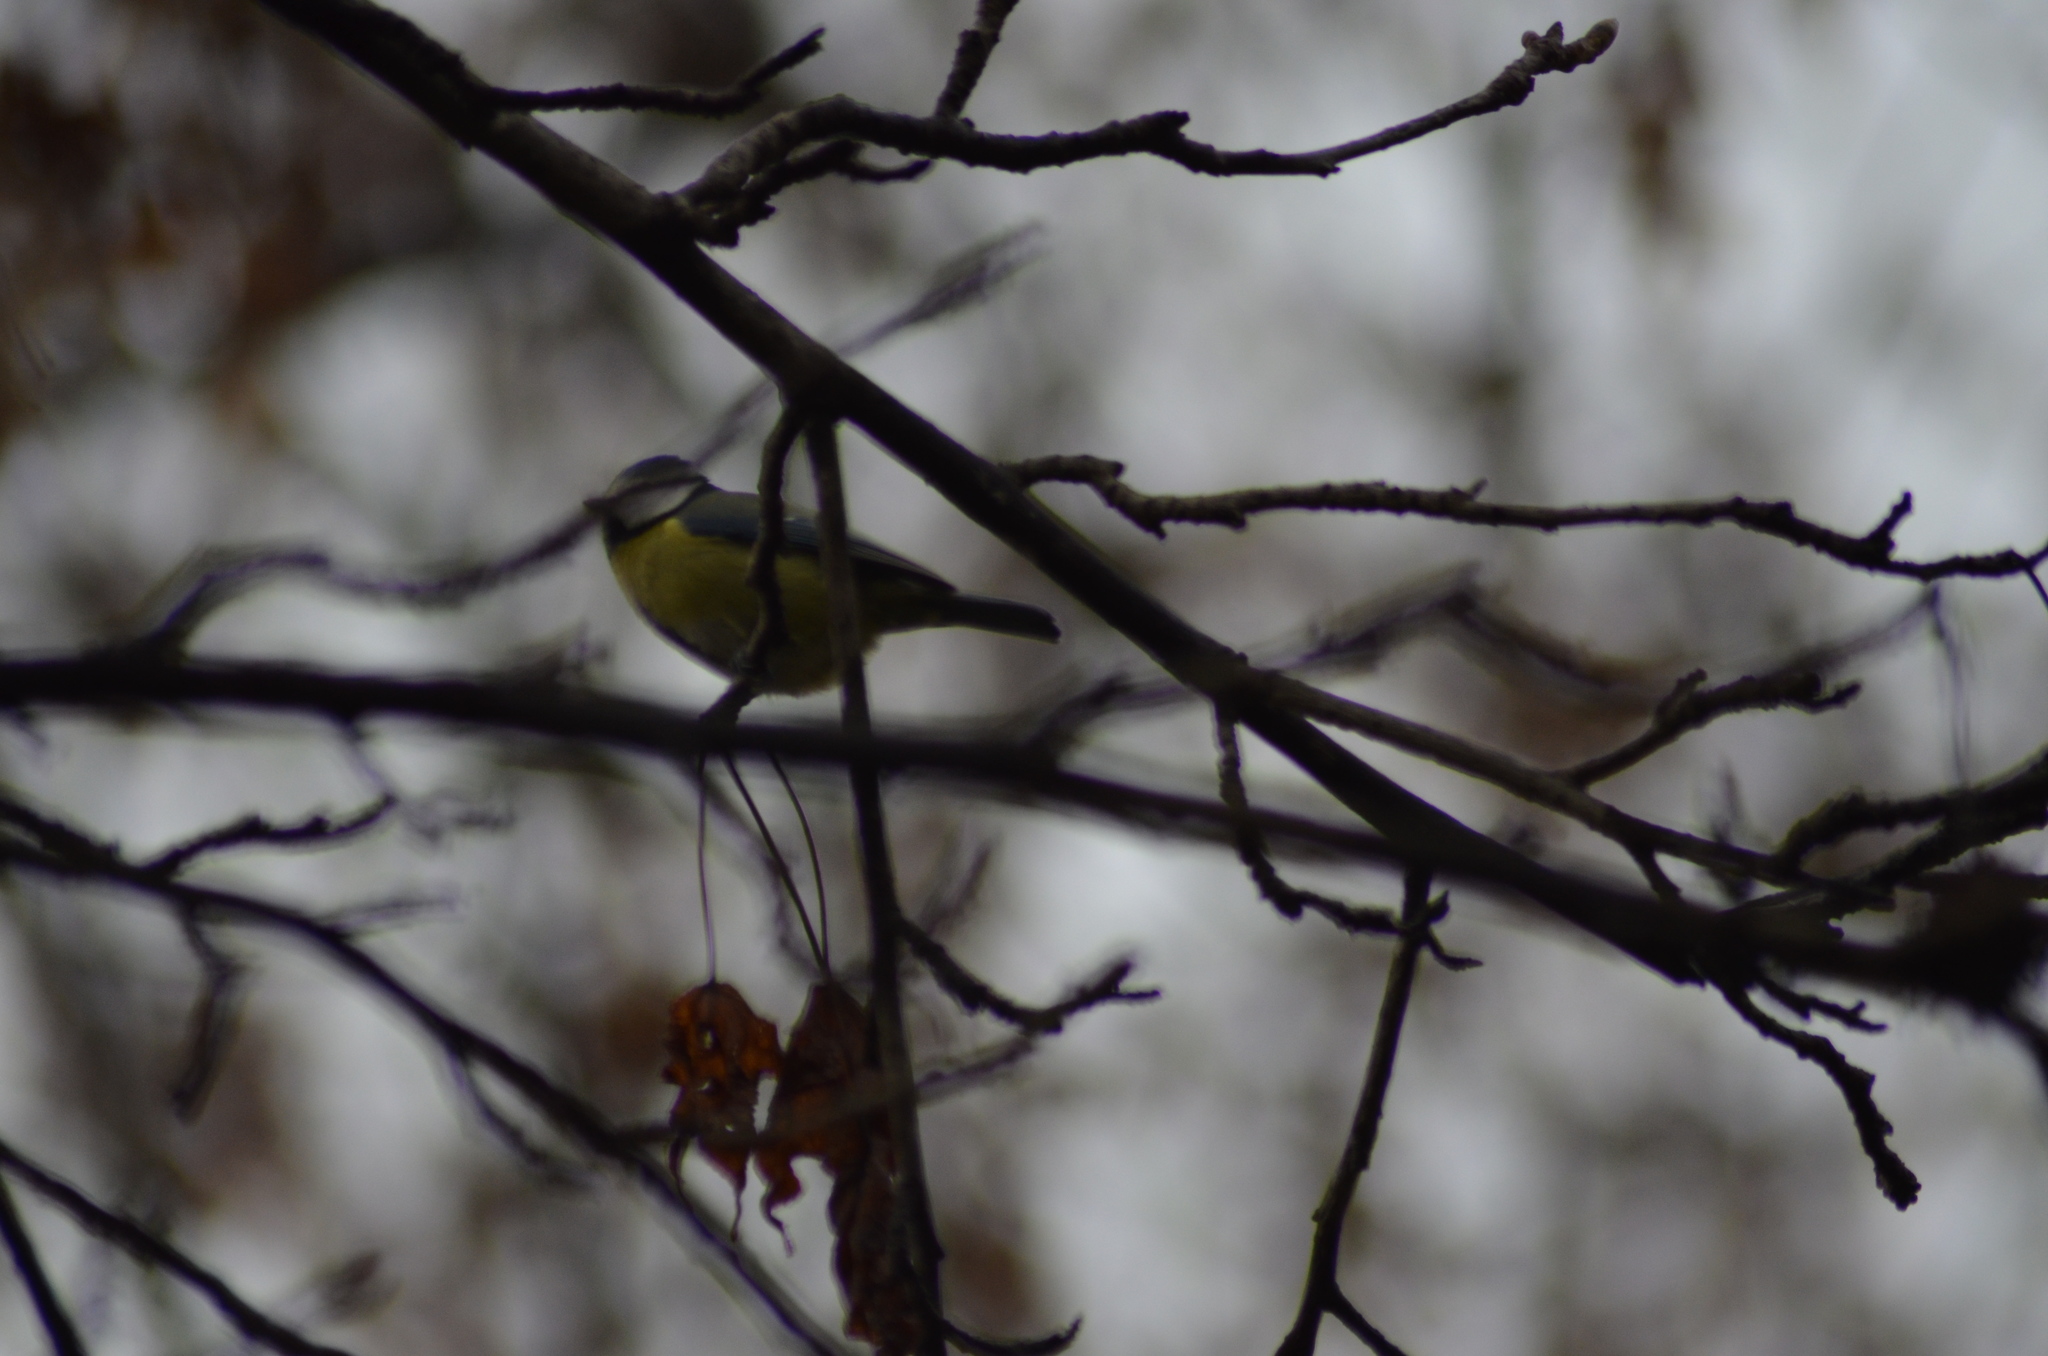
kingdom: Animalia
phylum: Chordata
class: Aves
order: Passeriformes
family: Paridae
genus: Cyanistes
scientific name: Cyanistes caeruleus
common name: Eurasian blue tit
